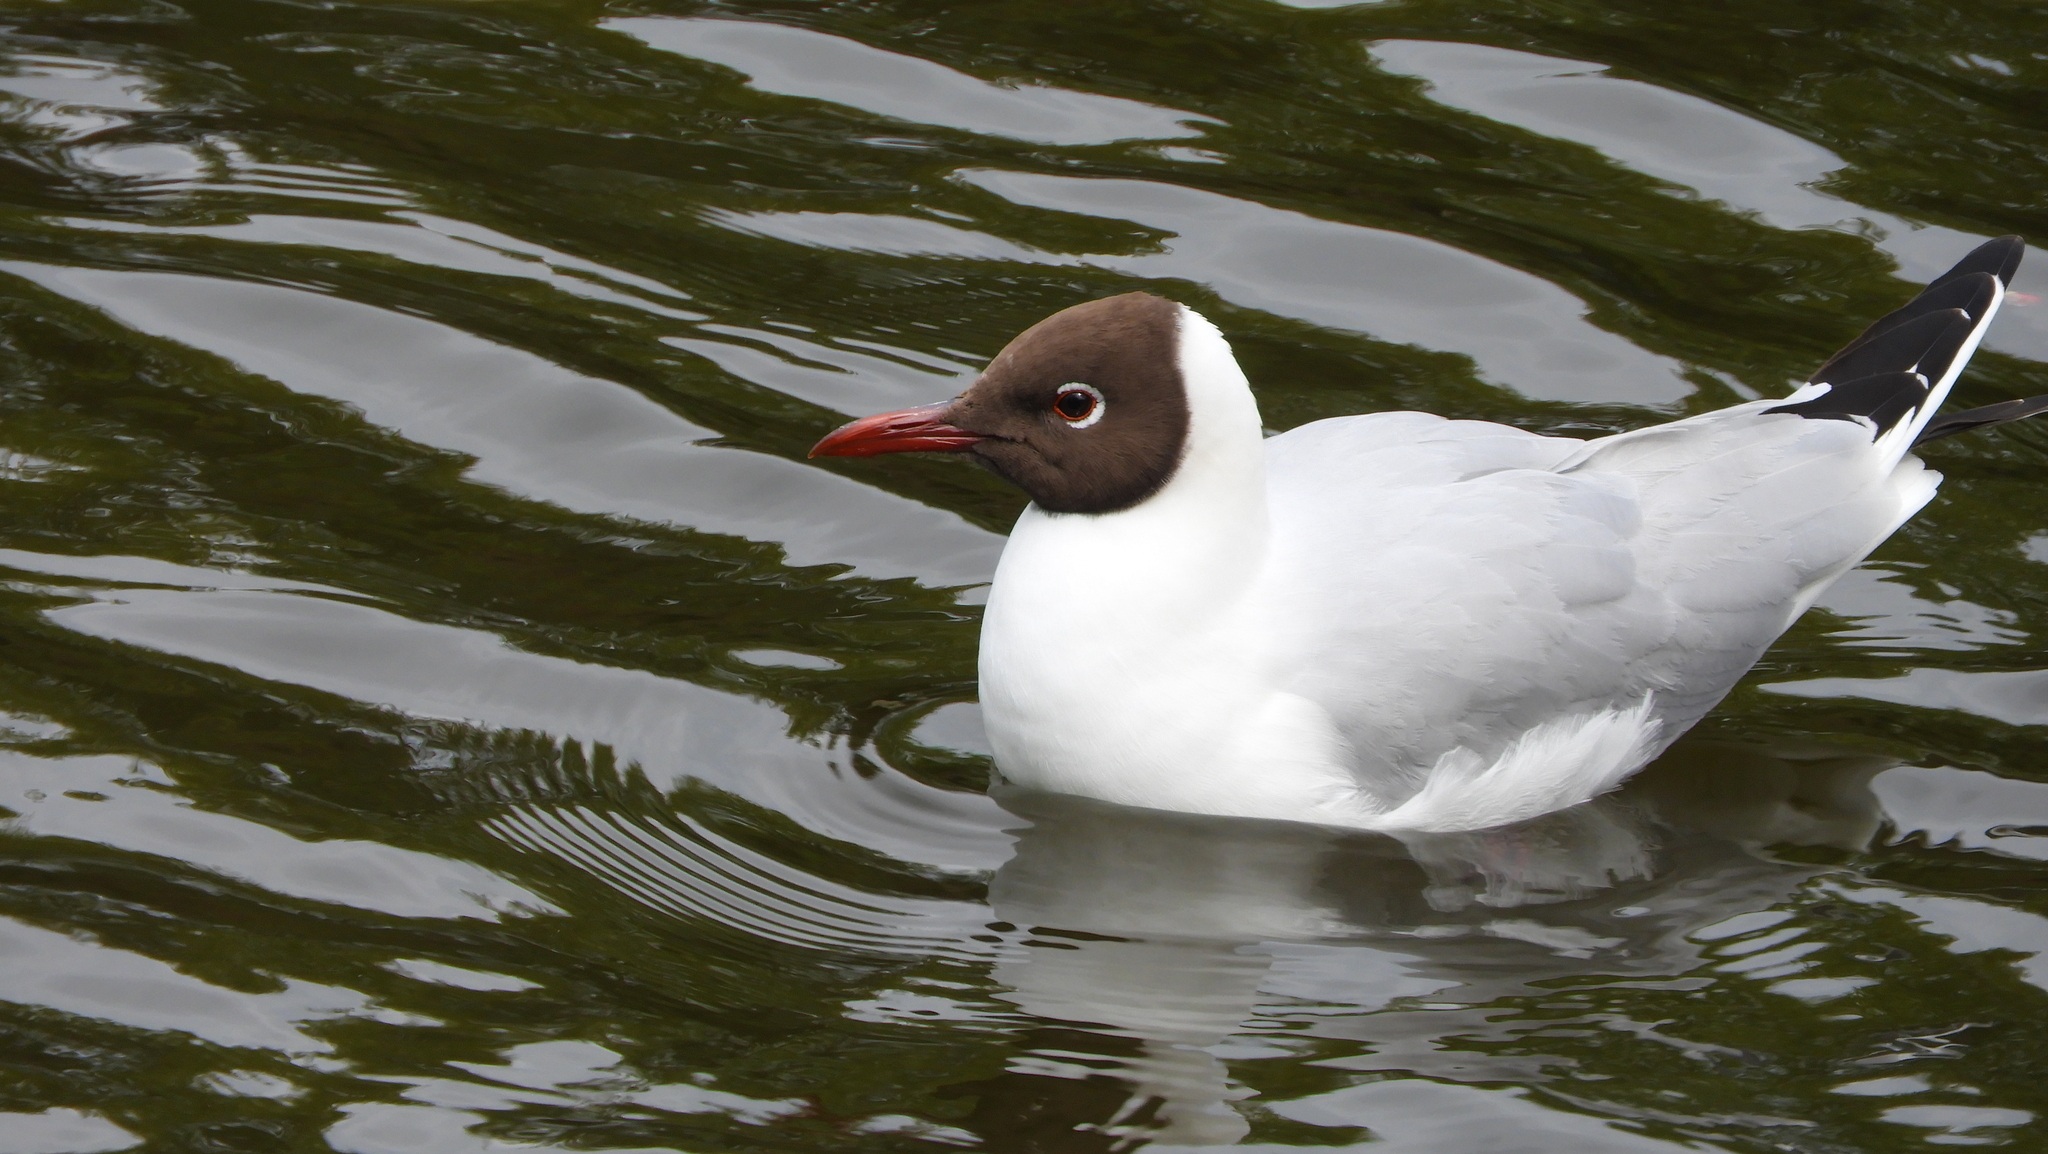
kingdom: Animalia
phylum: Chordata
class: Aves
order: Charadriiformes
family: Laridae
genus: Chroicocephalus
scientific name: Chroicocephalus ridibundus
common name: Black-headed gull
